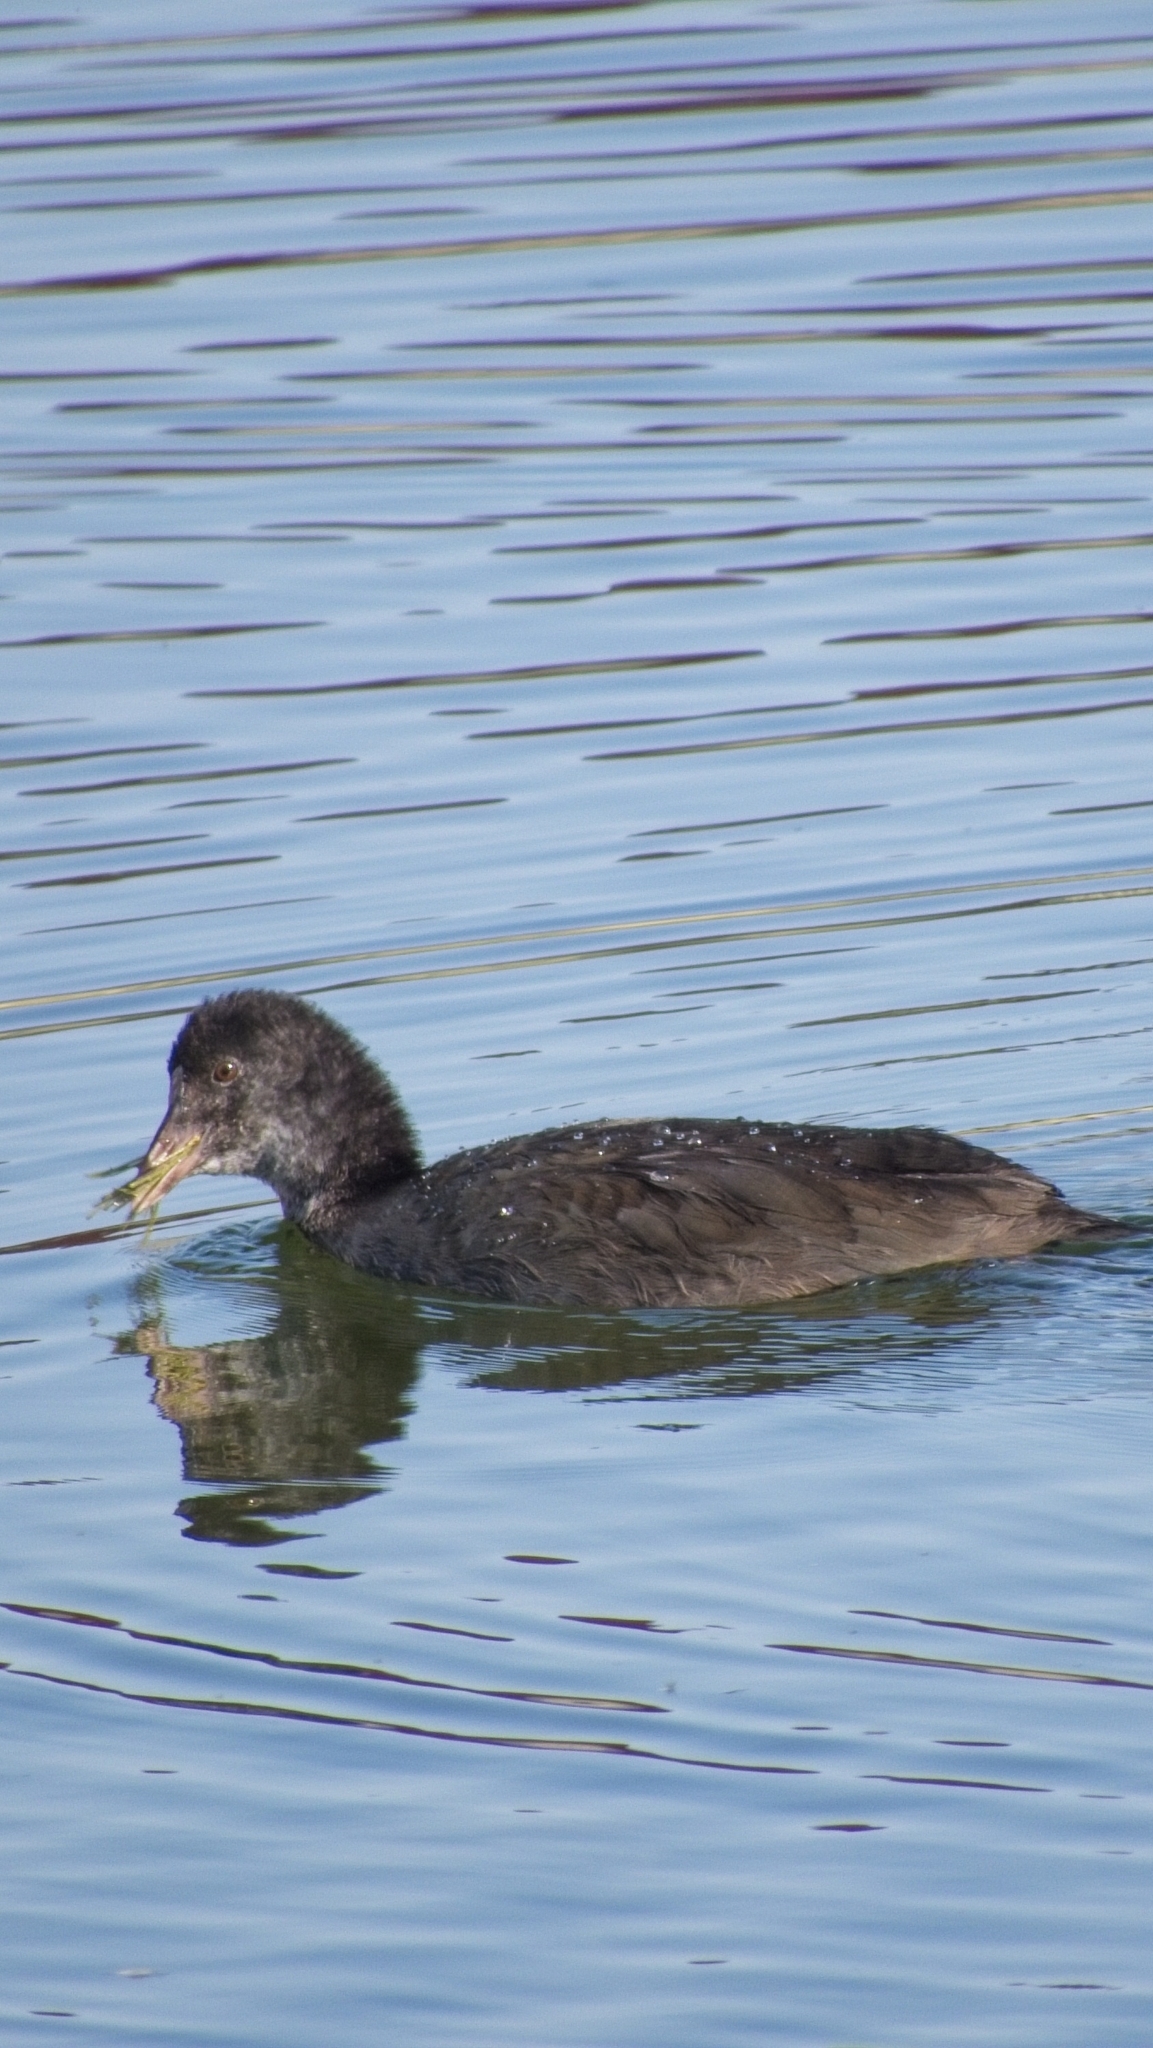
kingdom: Animalia
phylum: Chordata
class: Aves
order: Gruiformes
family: Rallidae
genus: Fulica
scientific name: Fulica atra
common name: Eurasian coot
